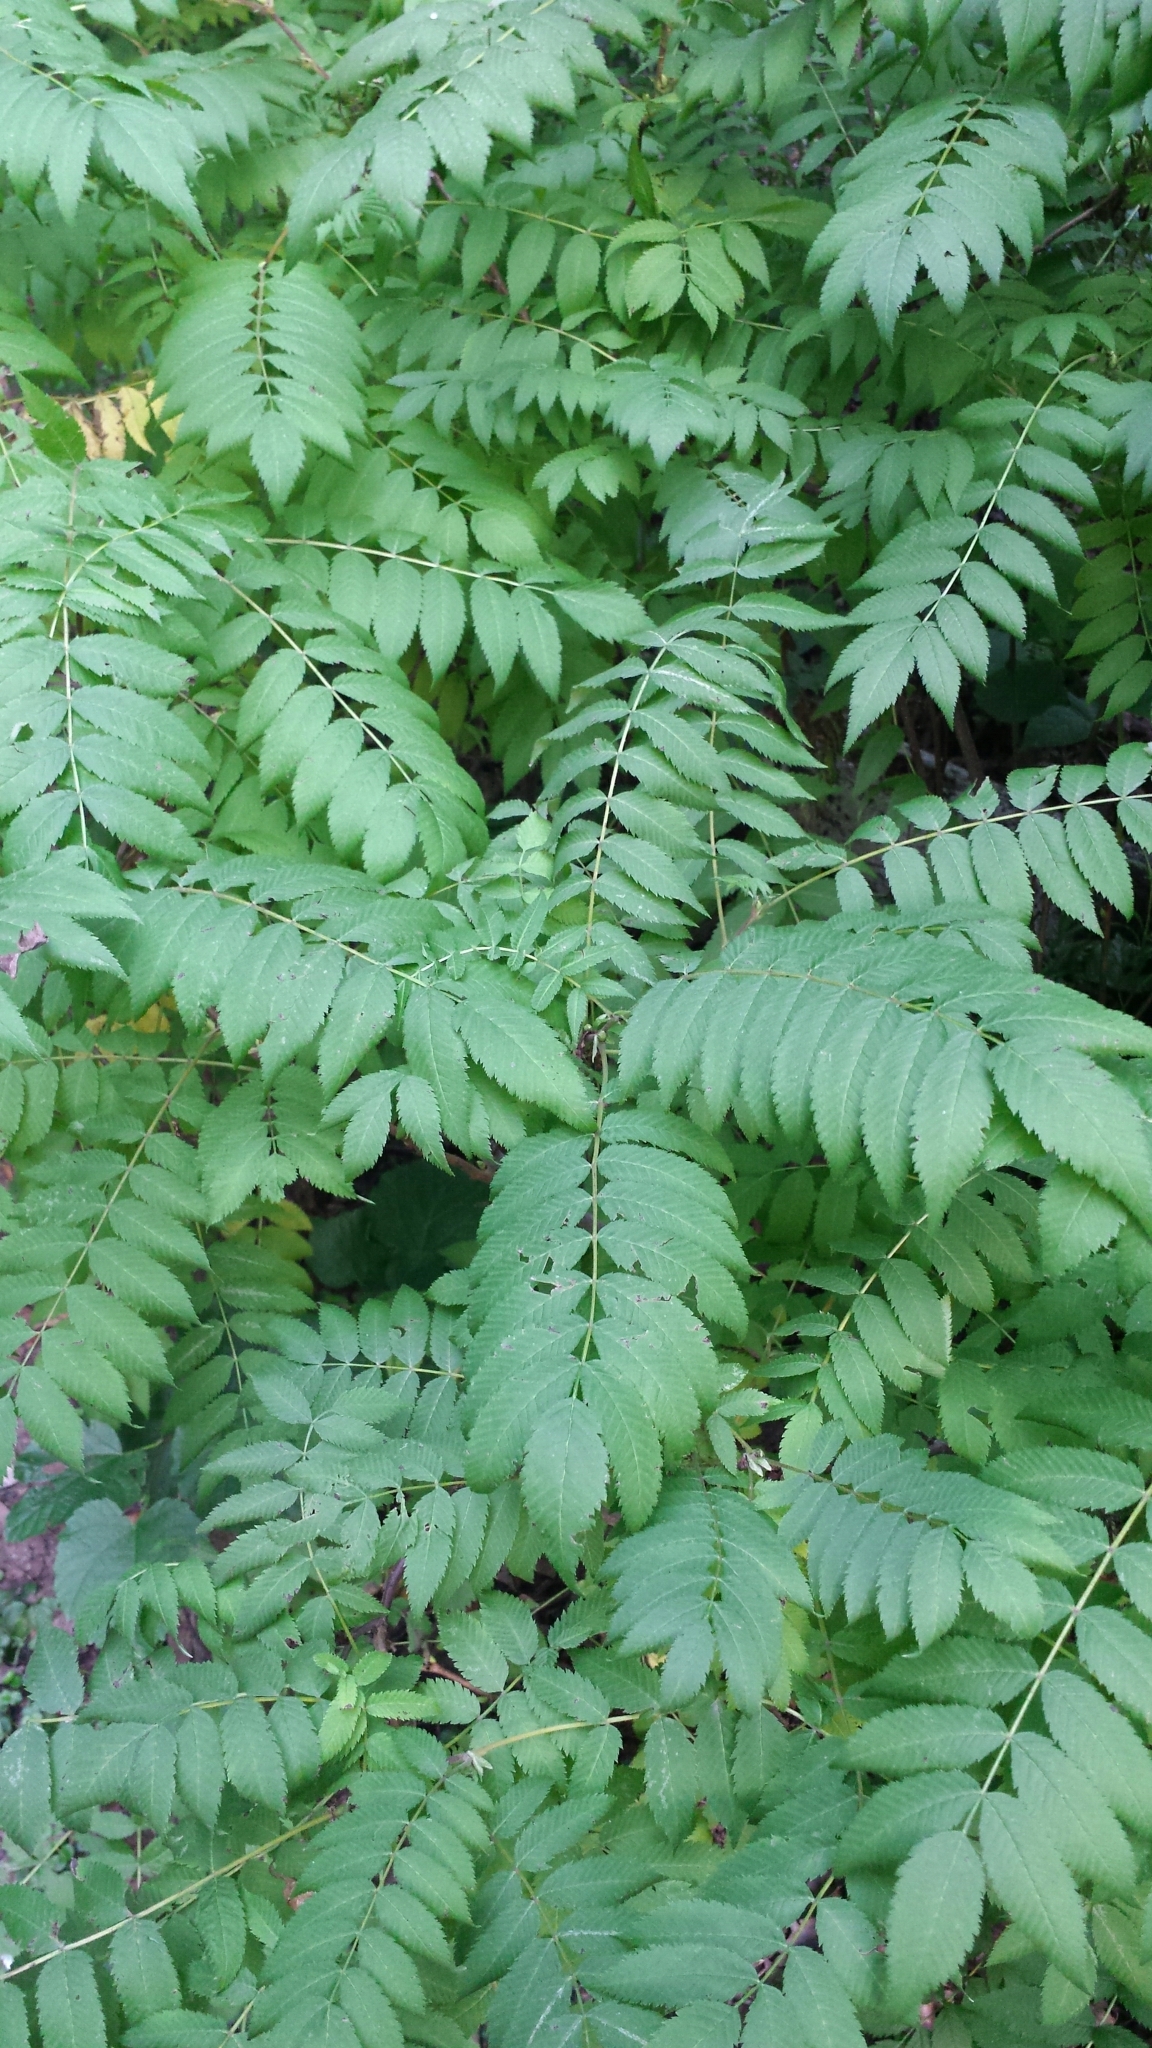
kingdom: Plantae
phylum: Tracheophyta
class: Magnoliopsida
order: Rosales
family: Rosaceae
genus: Sorbaria
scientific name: Sorbaria sorbifolia
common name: False spiraea
